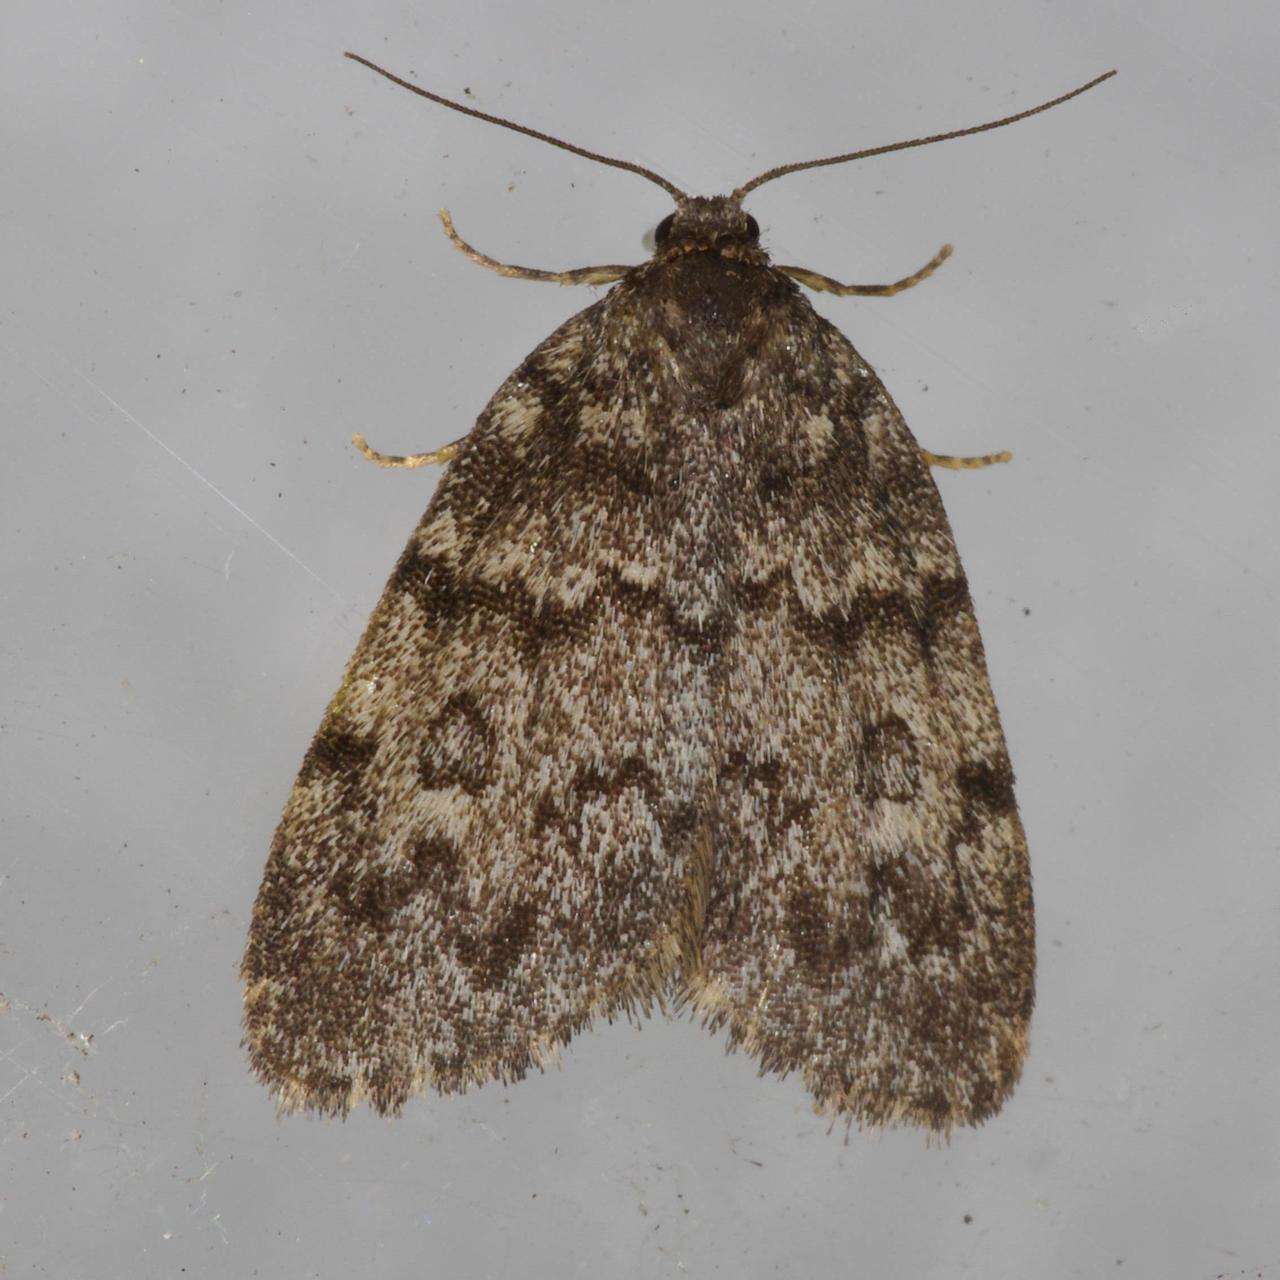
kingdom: Animalia
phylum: Arthropoda
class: Insecta
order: Lepidoptera
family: Erebidae
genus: Halone
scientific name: Halone consolatrix
